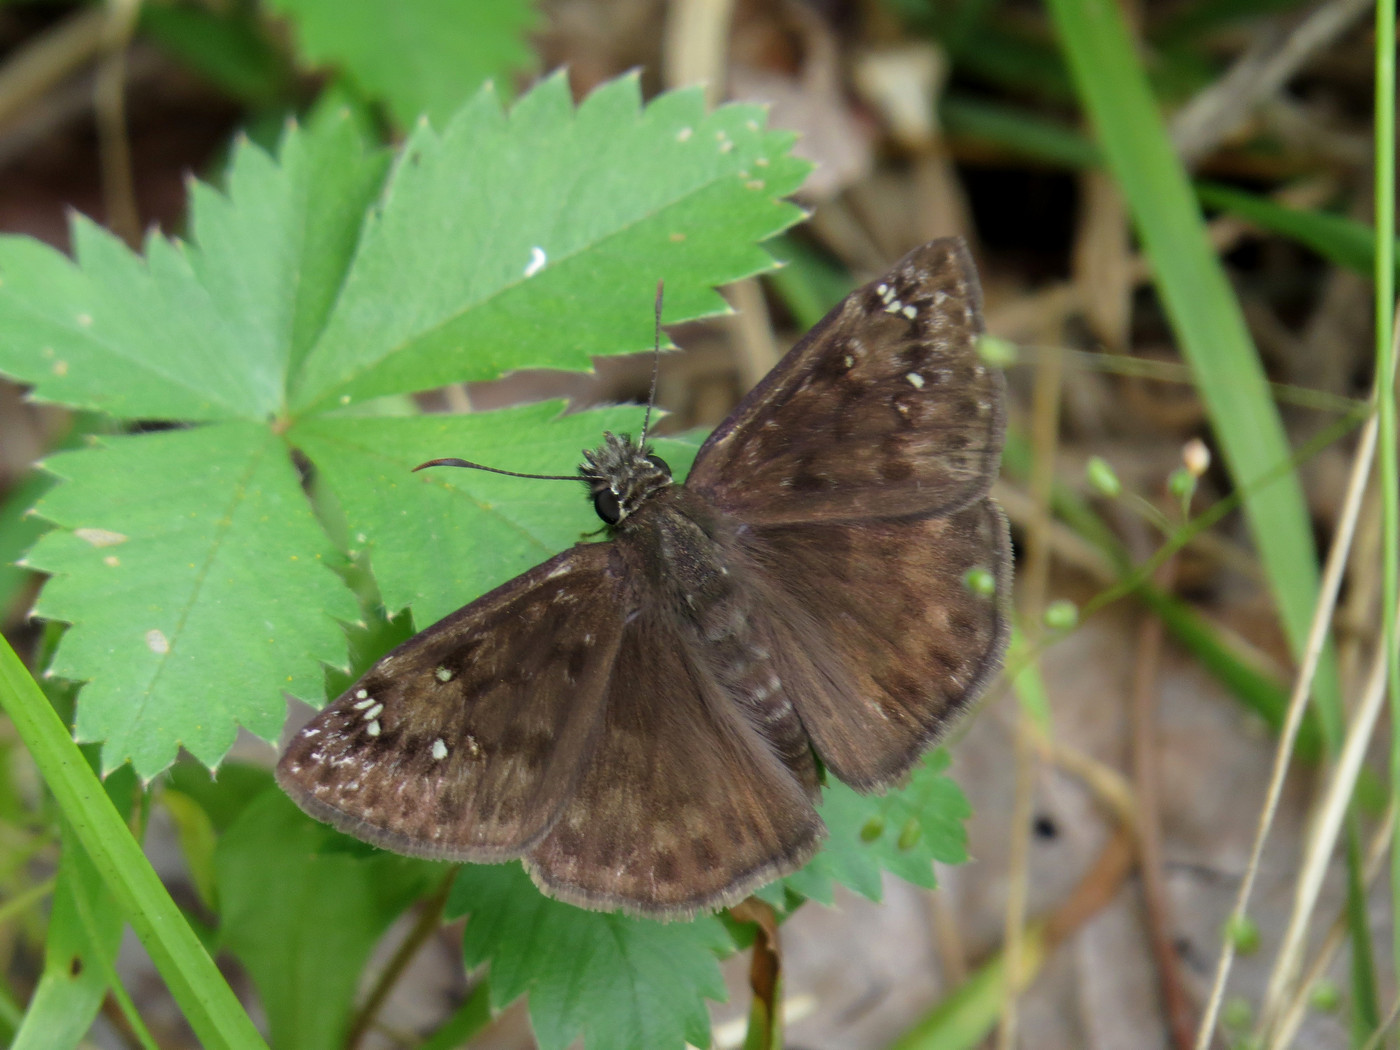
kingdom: Animalia
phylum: Arthropoda
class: Insecta
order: Lepidoptera
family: Hesperiidae
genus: Erynnis
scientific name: Erynnis horatius
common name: Horace's duskywing
